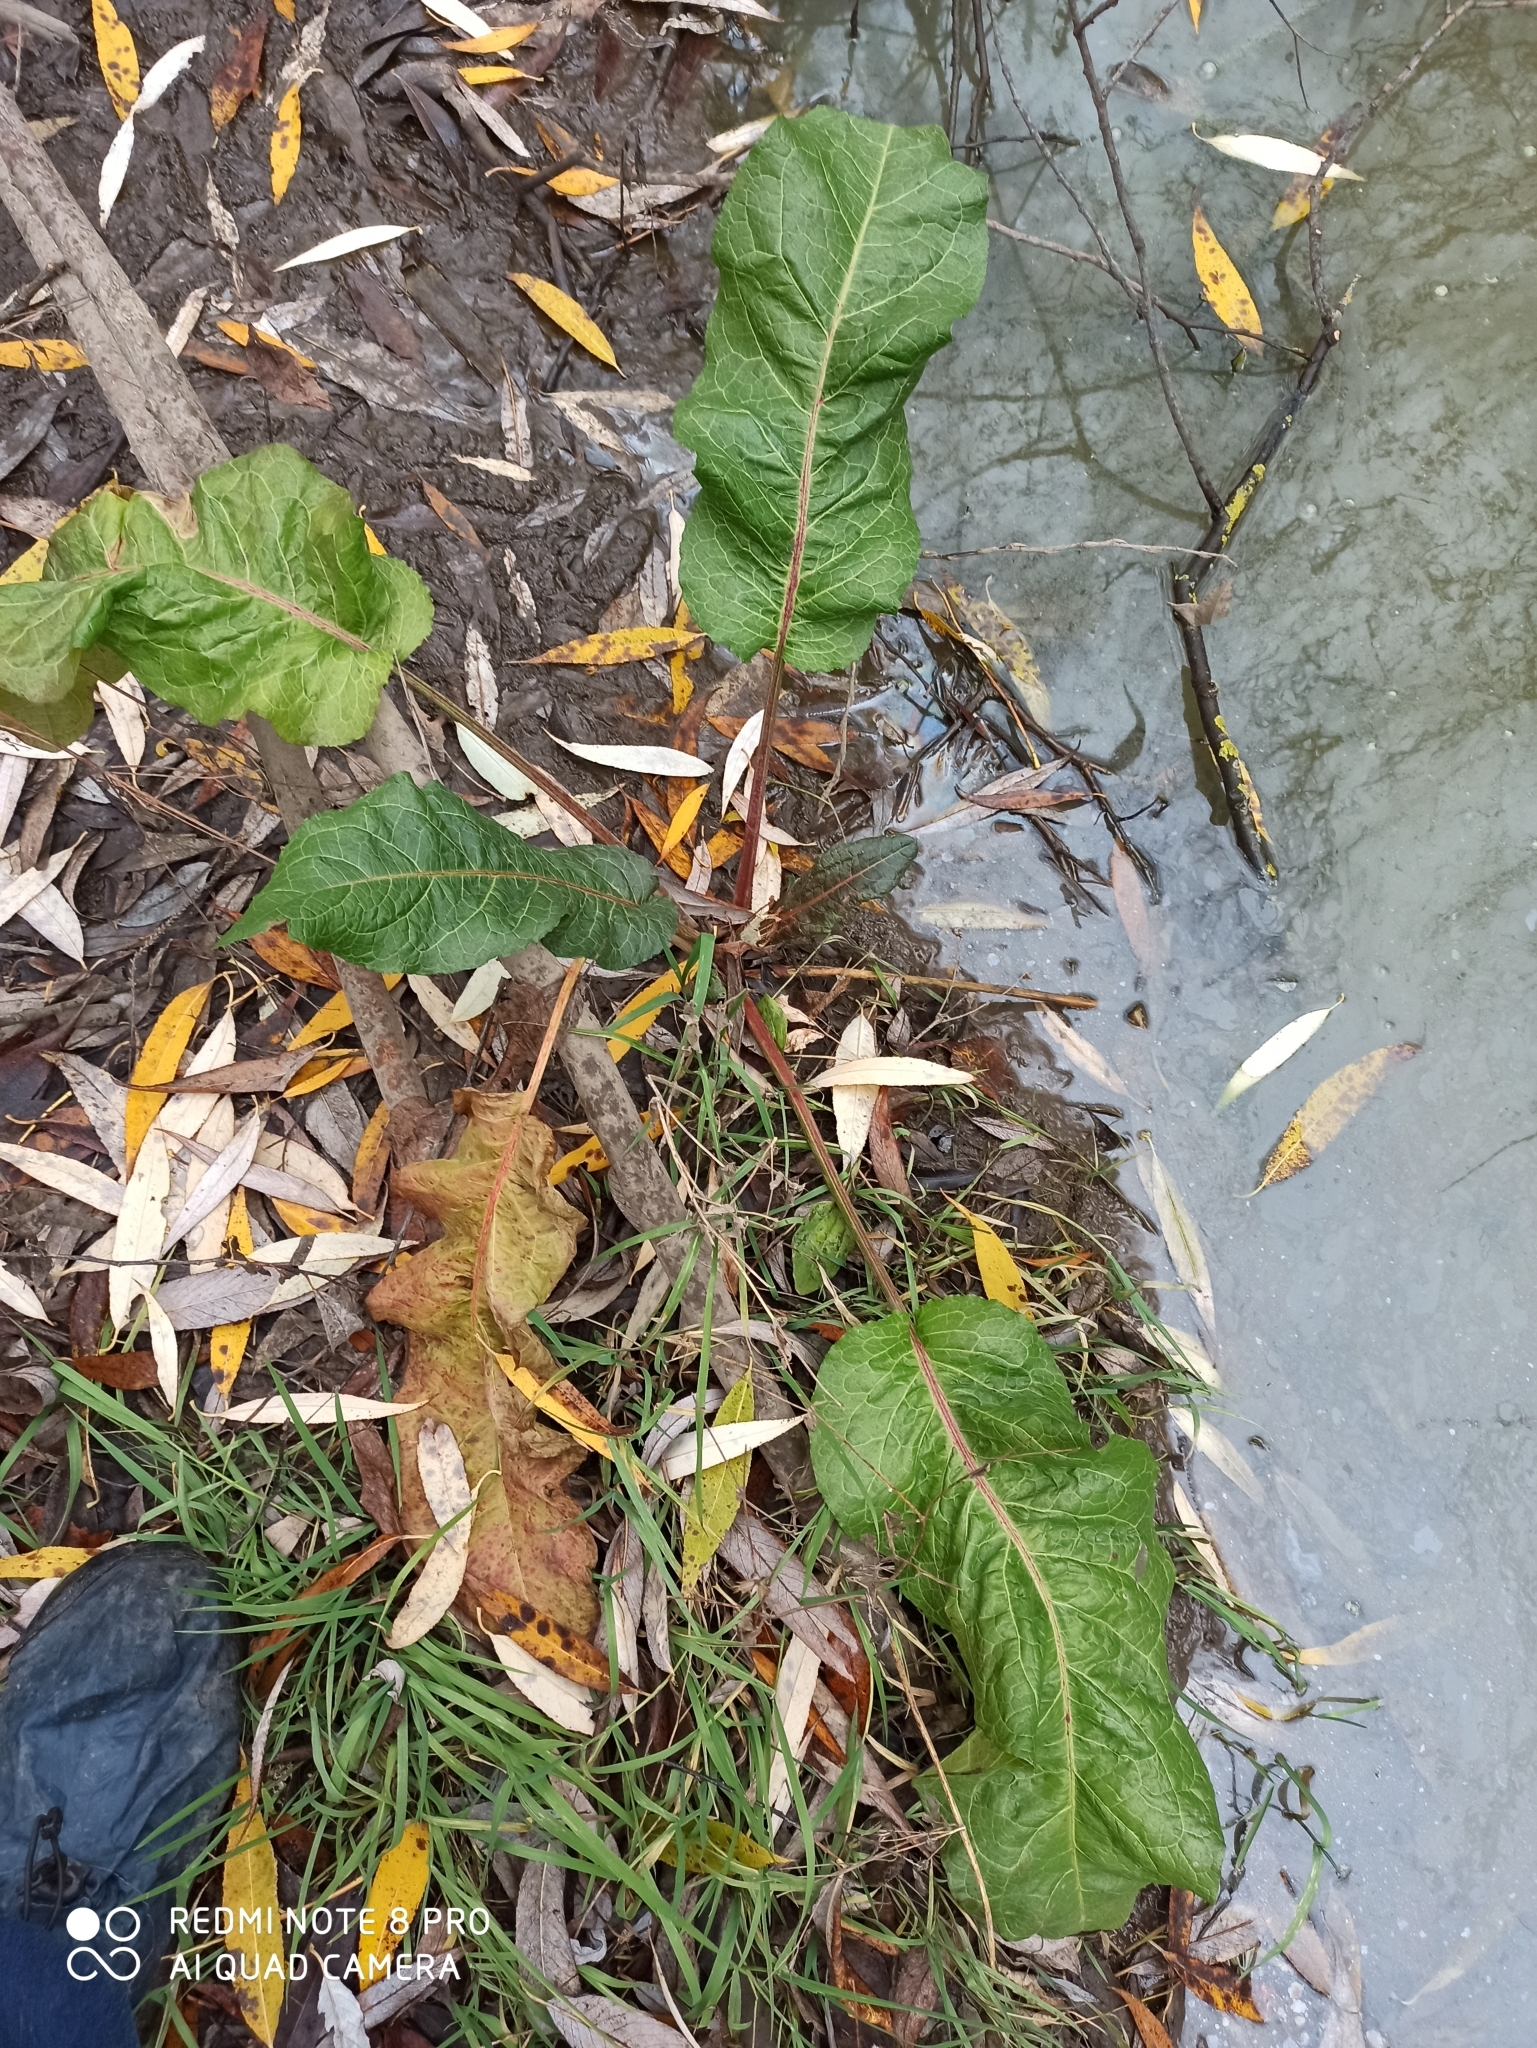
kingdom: Plantae
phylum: Tracheophyta
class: Magnoliopsida
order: Caryophyllales
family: Polygonaceae
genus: Rumex
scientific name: Rumex obtusifolius
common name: Bitter dock
